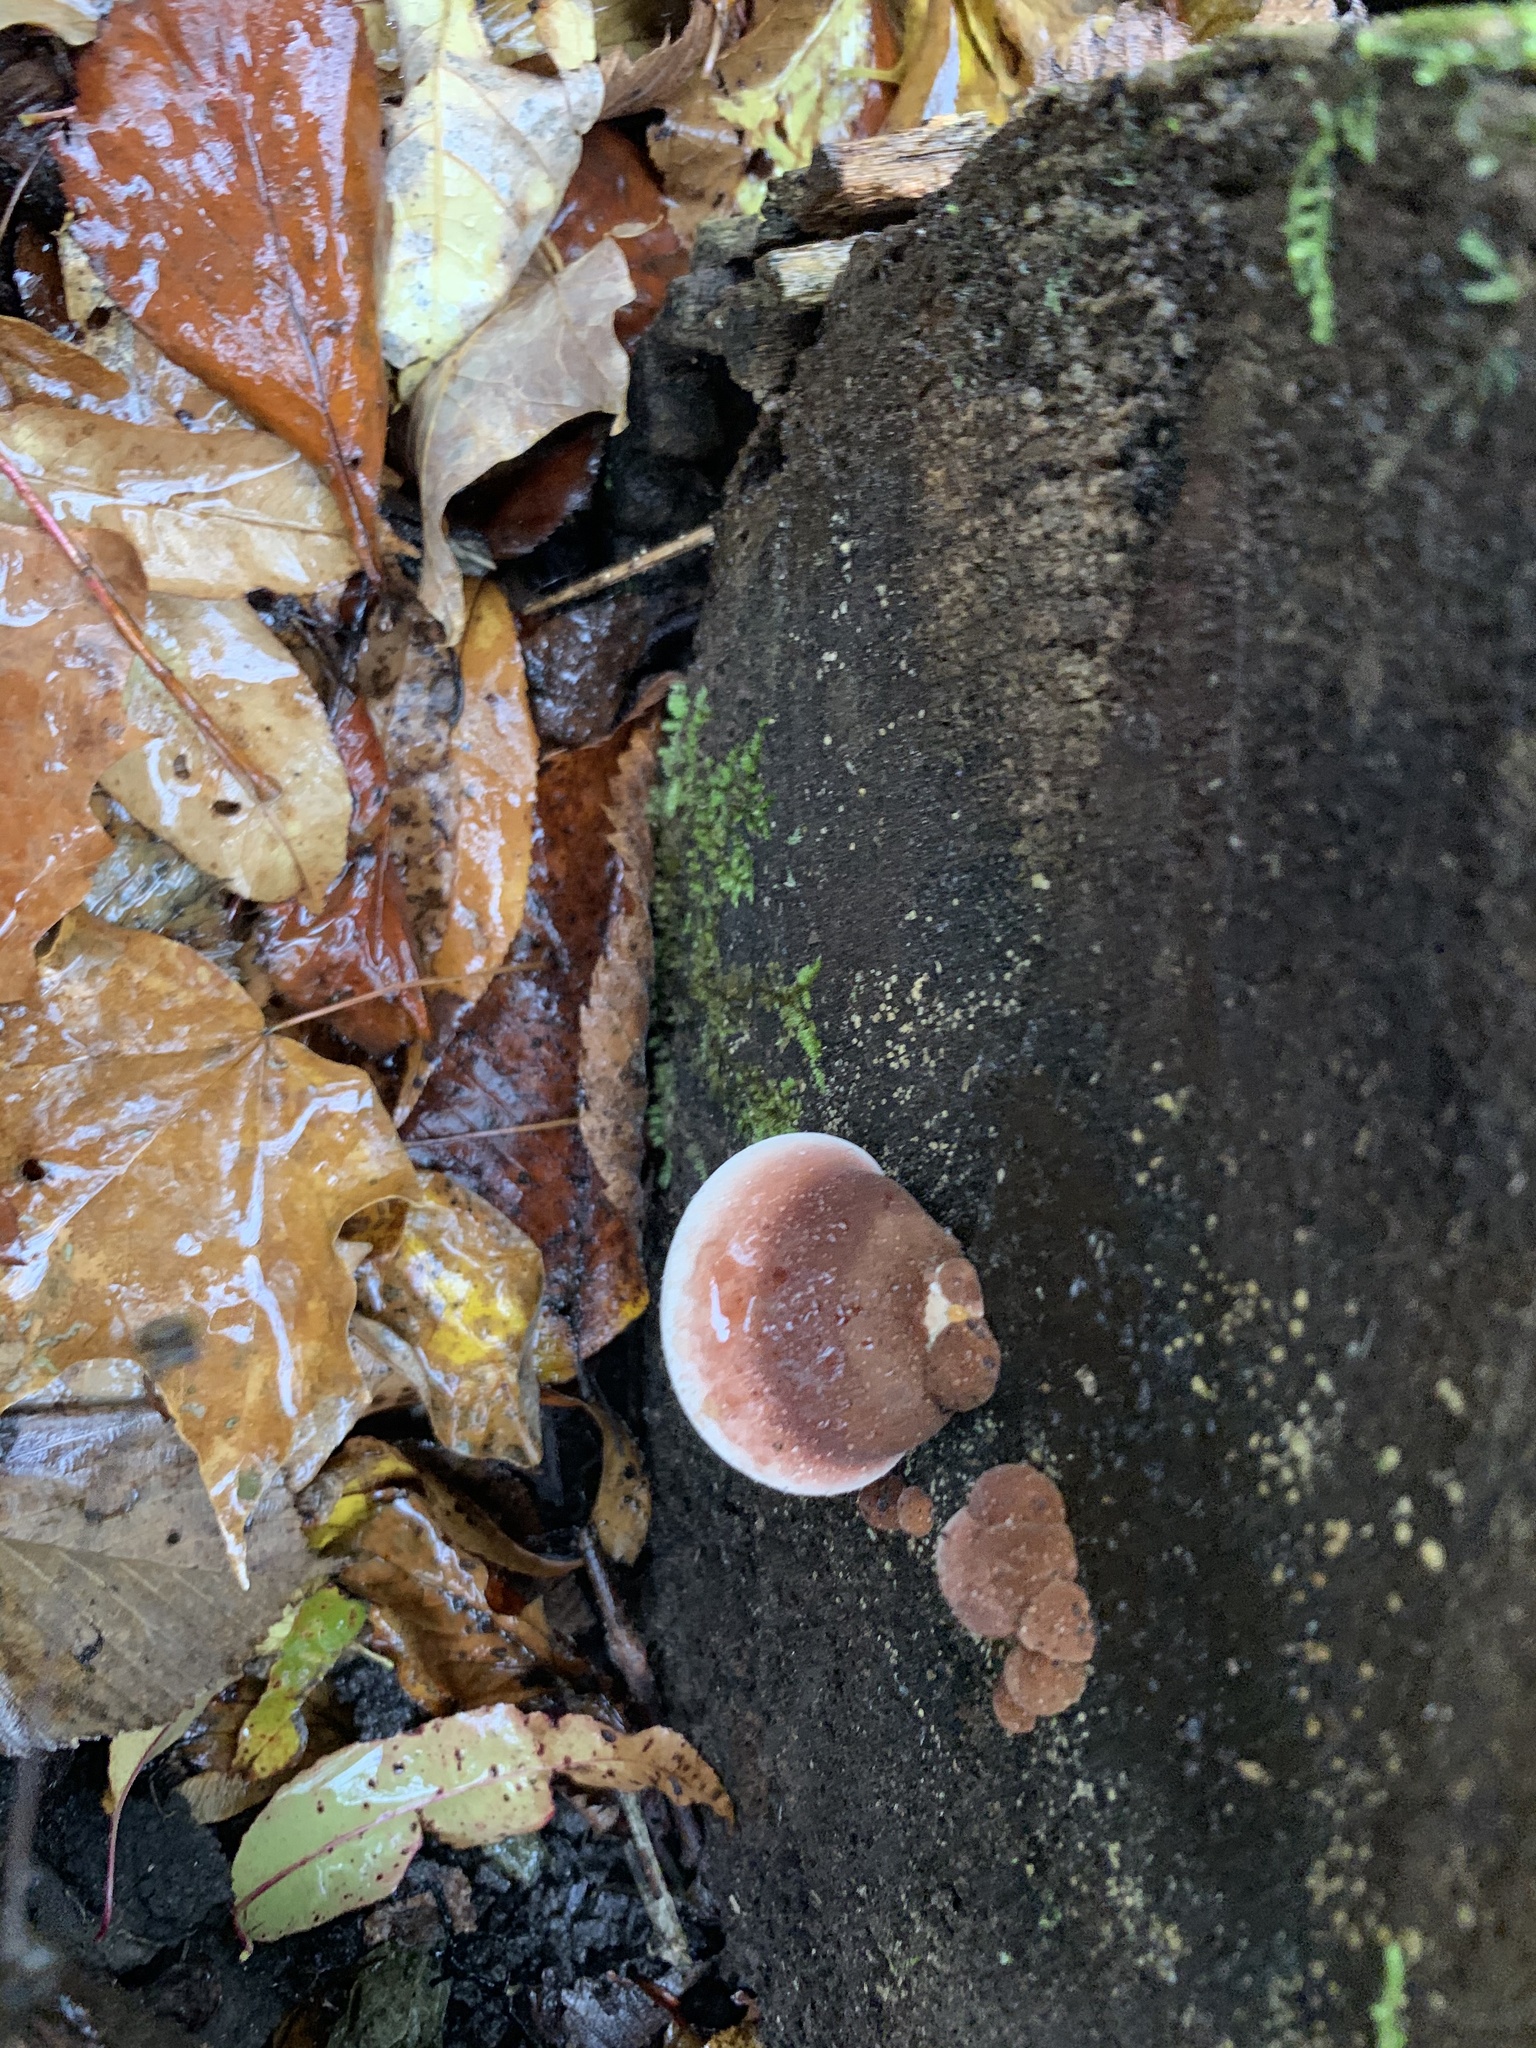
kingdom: Fungi
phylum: Basidiomycota
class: Agaricomycetes
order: Polyporales
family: Ischnodermataceae
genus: Ischnoderma
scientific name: Ischnoderma resinosum
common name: Resinous polypore
